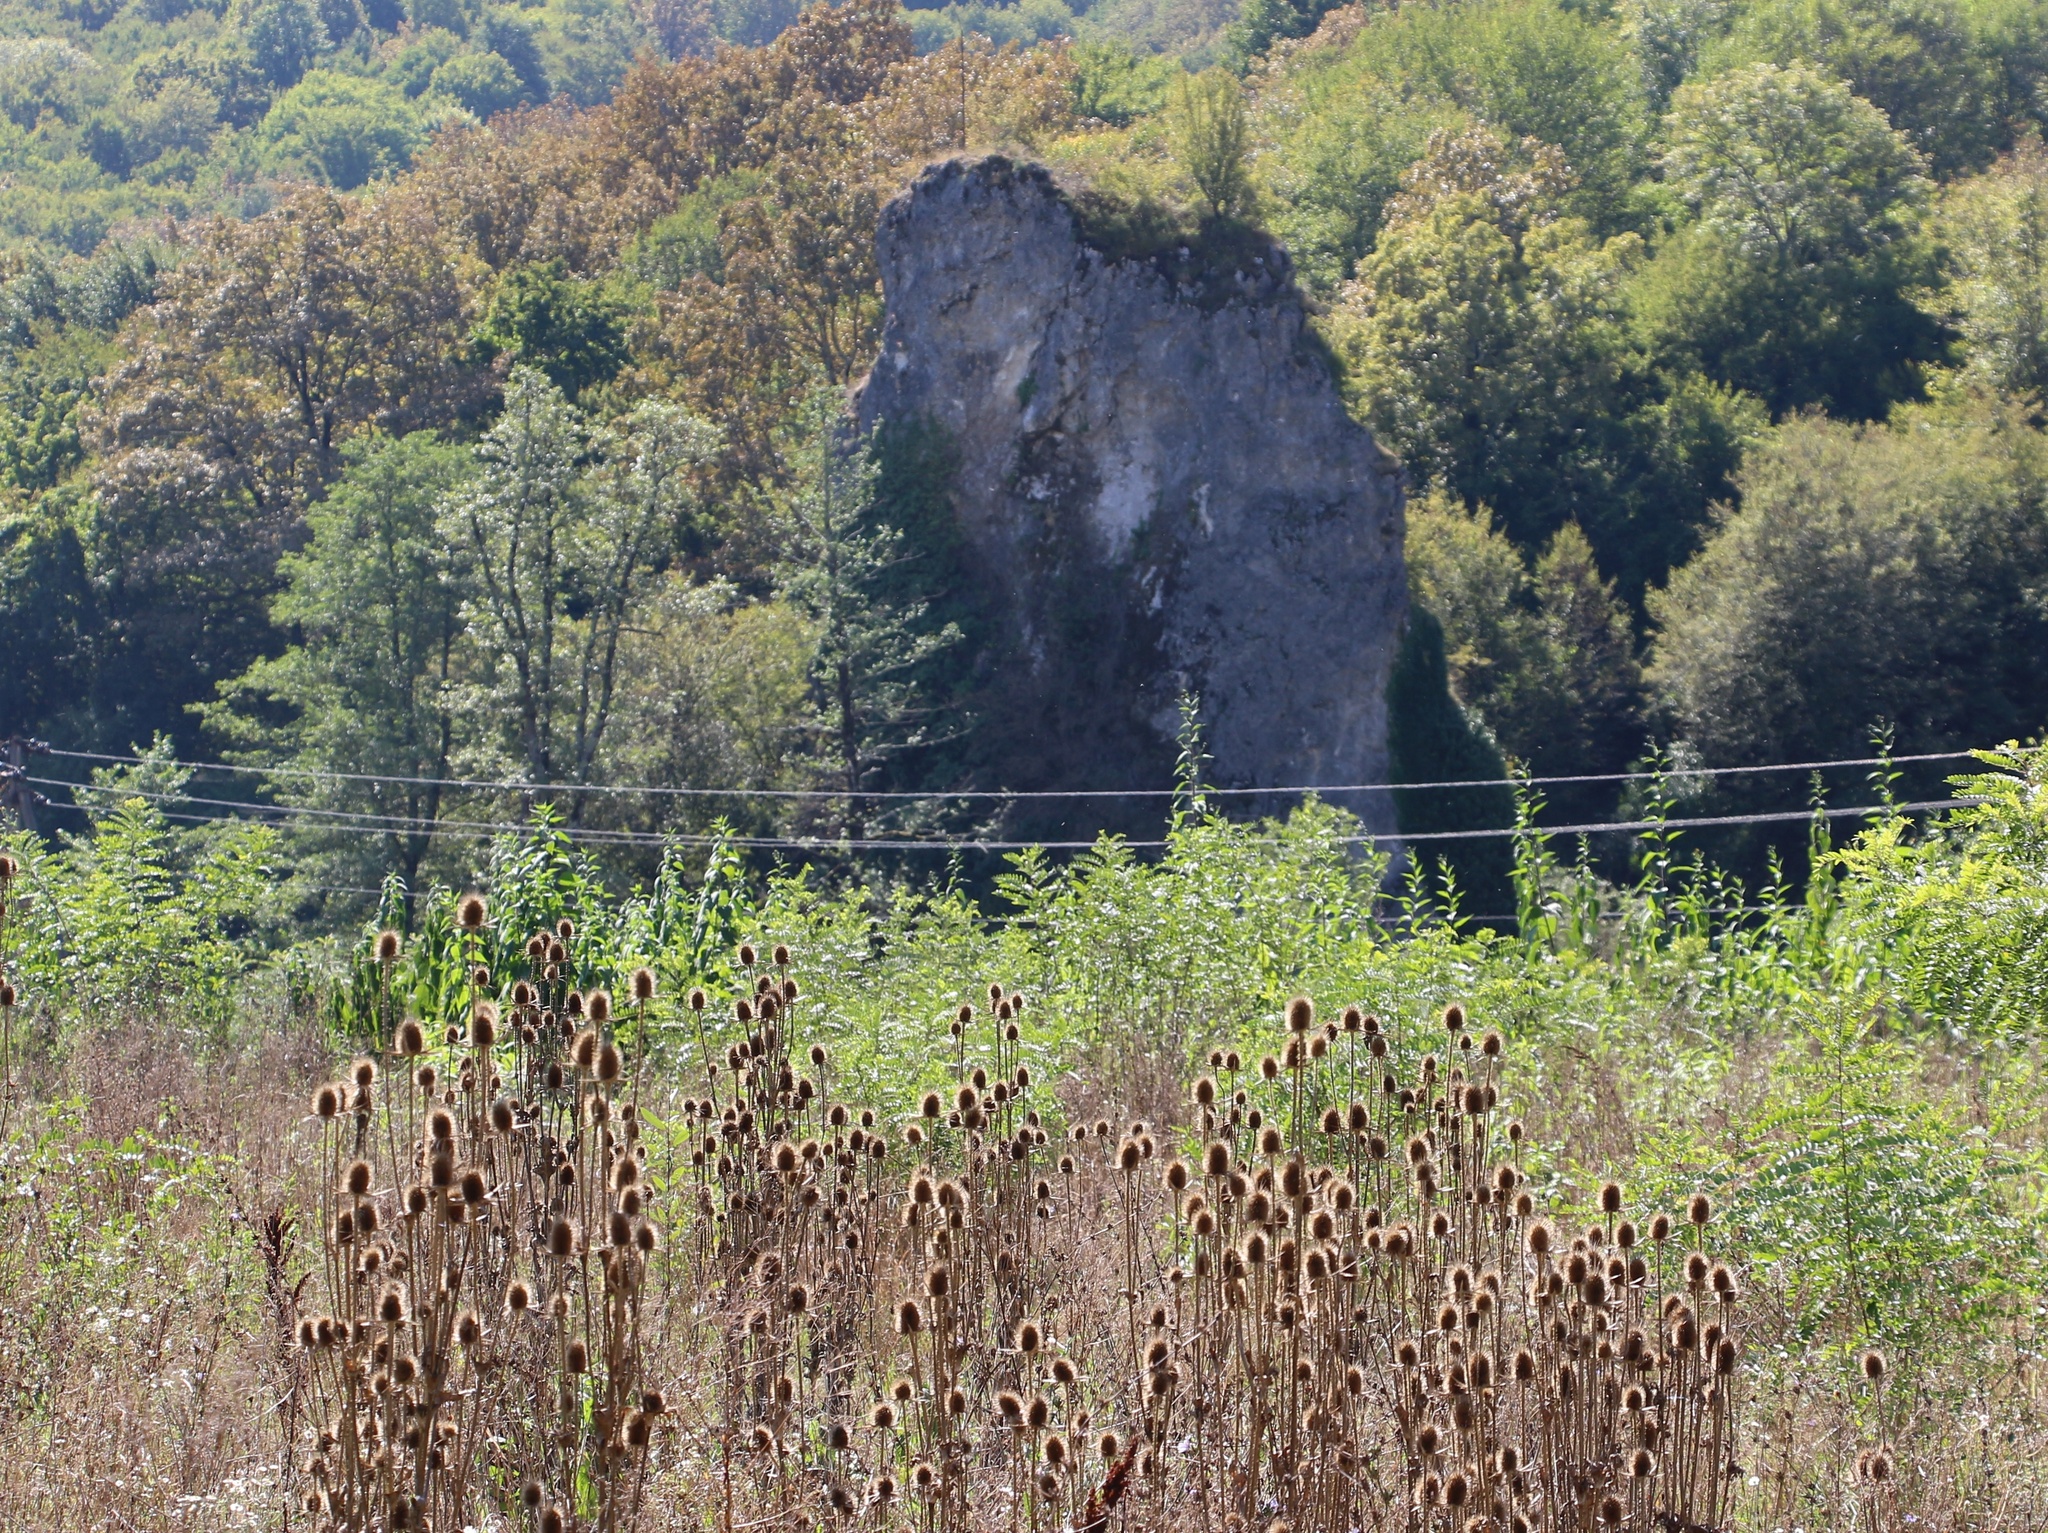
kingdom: Plantae
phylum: Tracheophyta
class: Magnoliopsida
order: Dipsacales
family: Caprifoliaceae
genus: Dipsacus
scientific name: Dipsacus laciniatus
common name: Cut-leaved teasel
